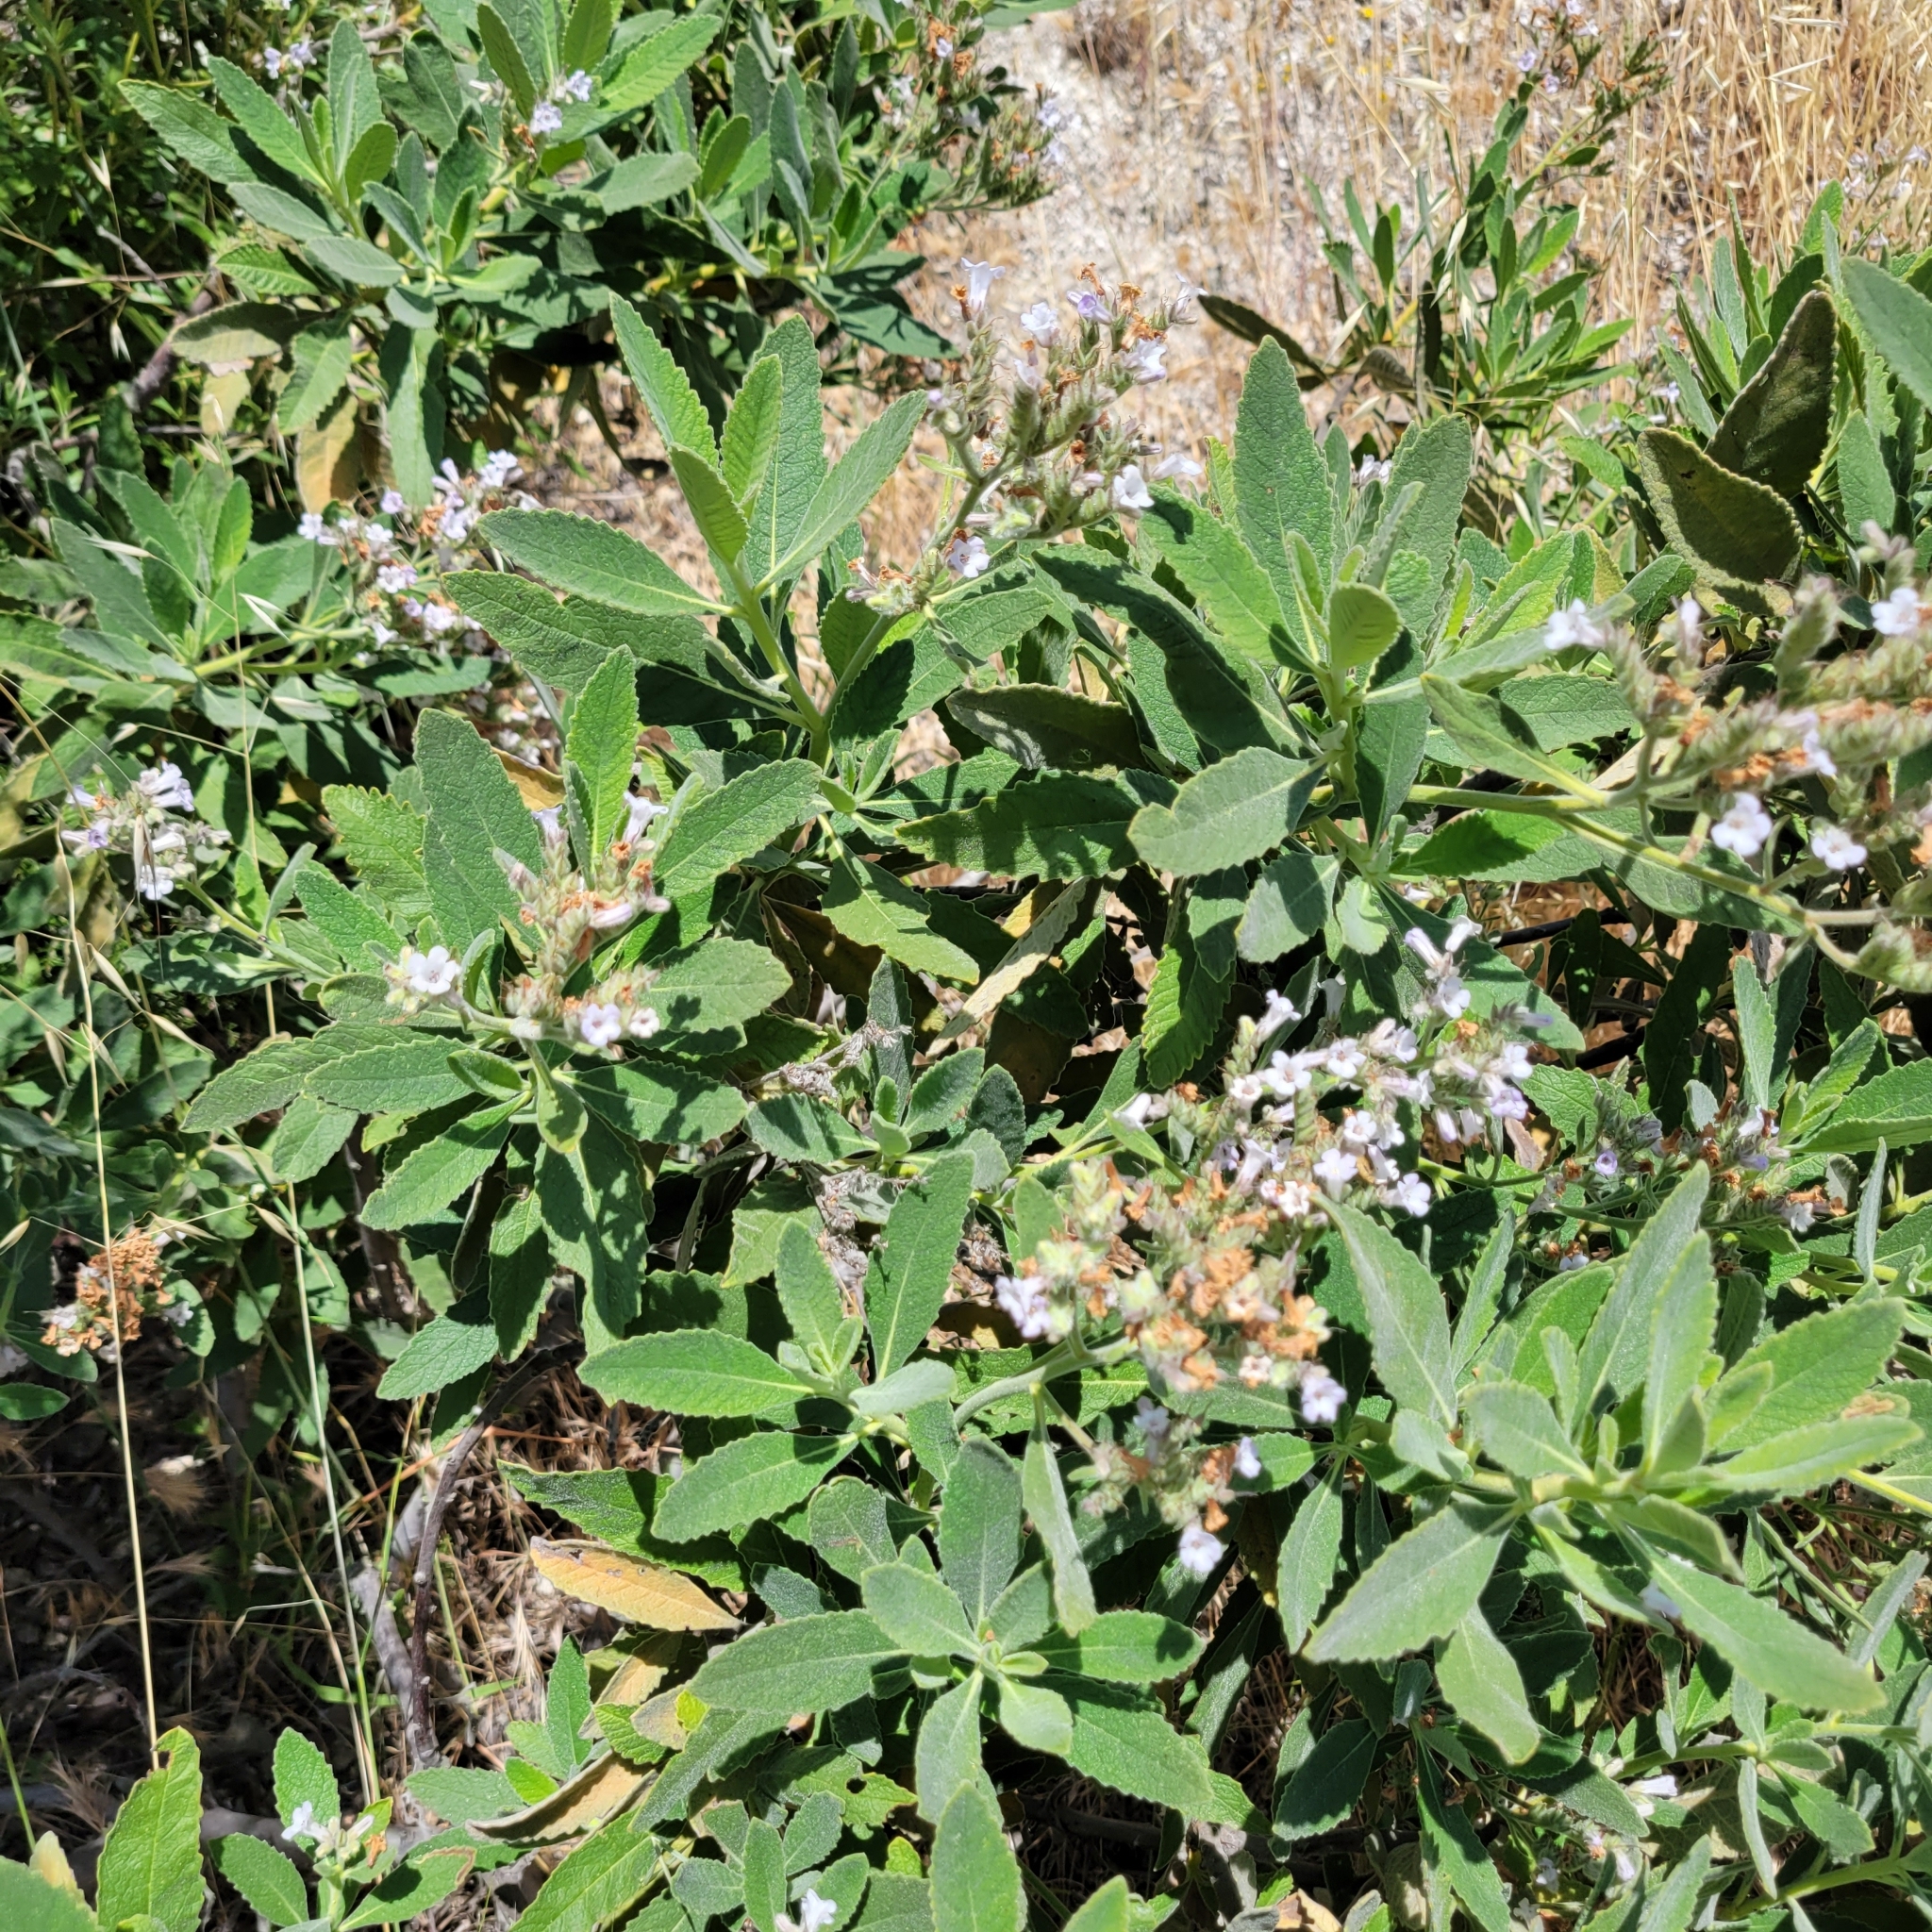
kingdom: Plantae
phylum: Tracheophyta
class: Magnoliopsida
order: Boraginales
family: Namaceae
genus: Eriodictyon
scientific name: Eriodictyon crassifolium
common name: Thick-leaf yerba-santa
